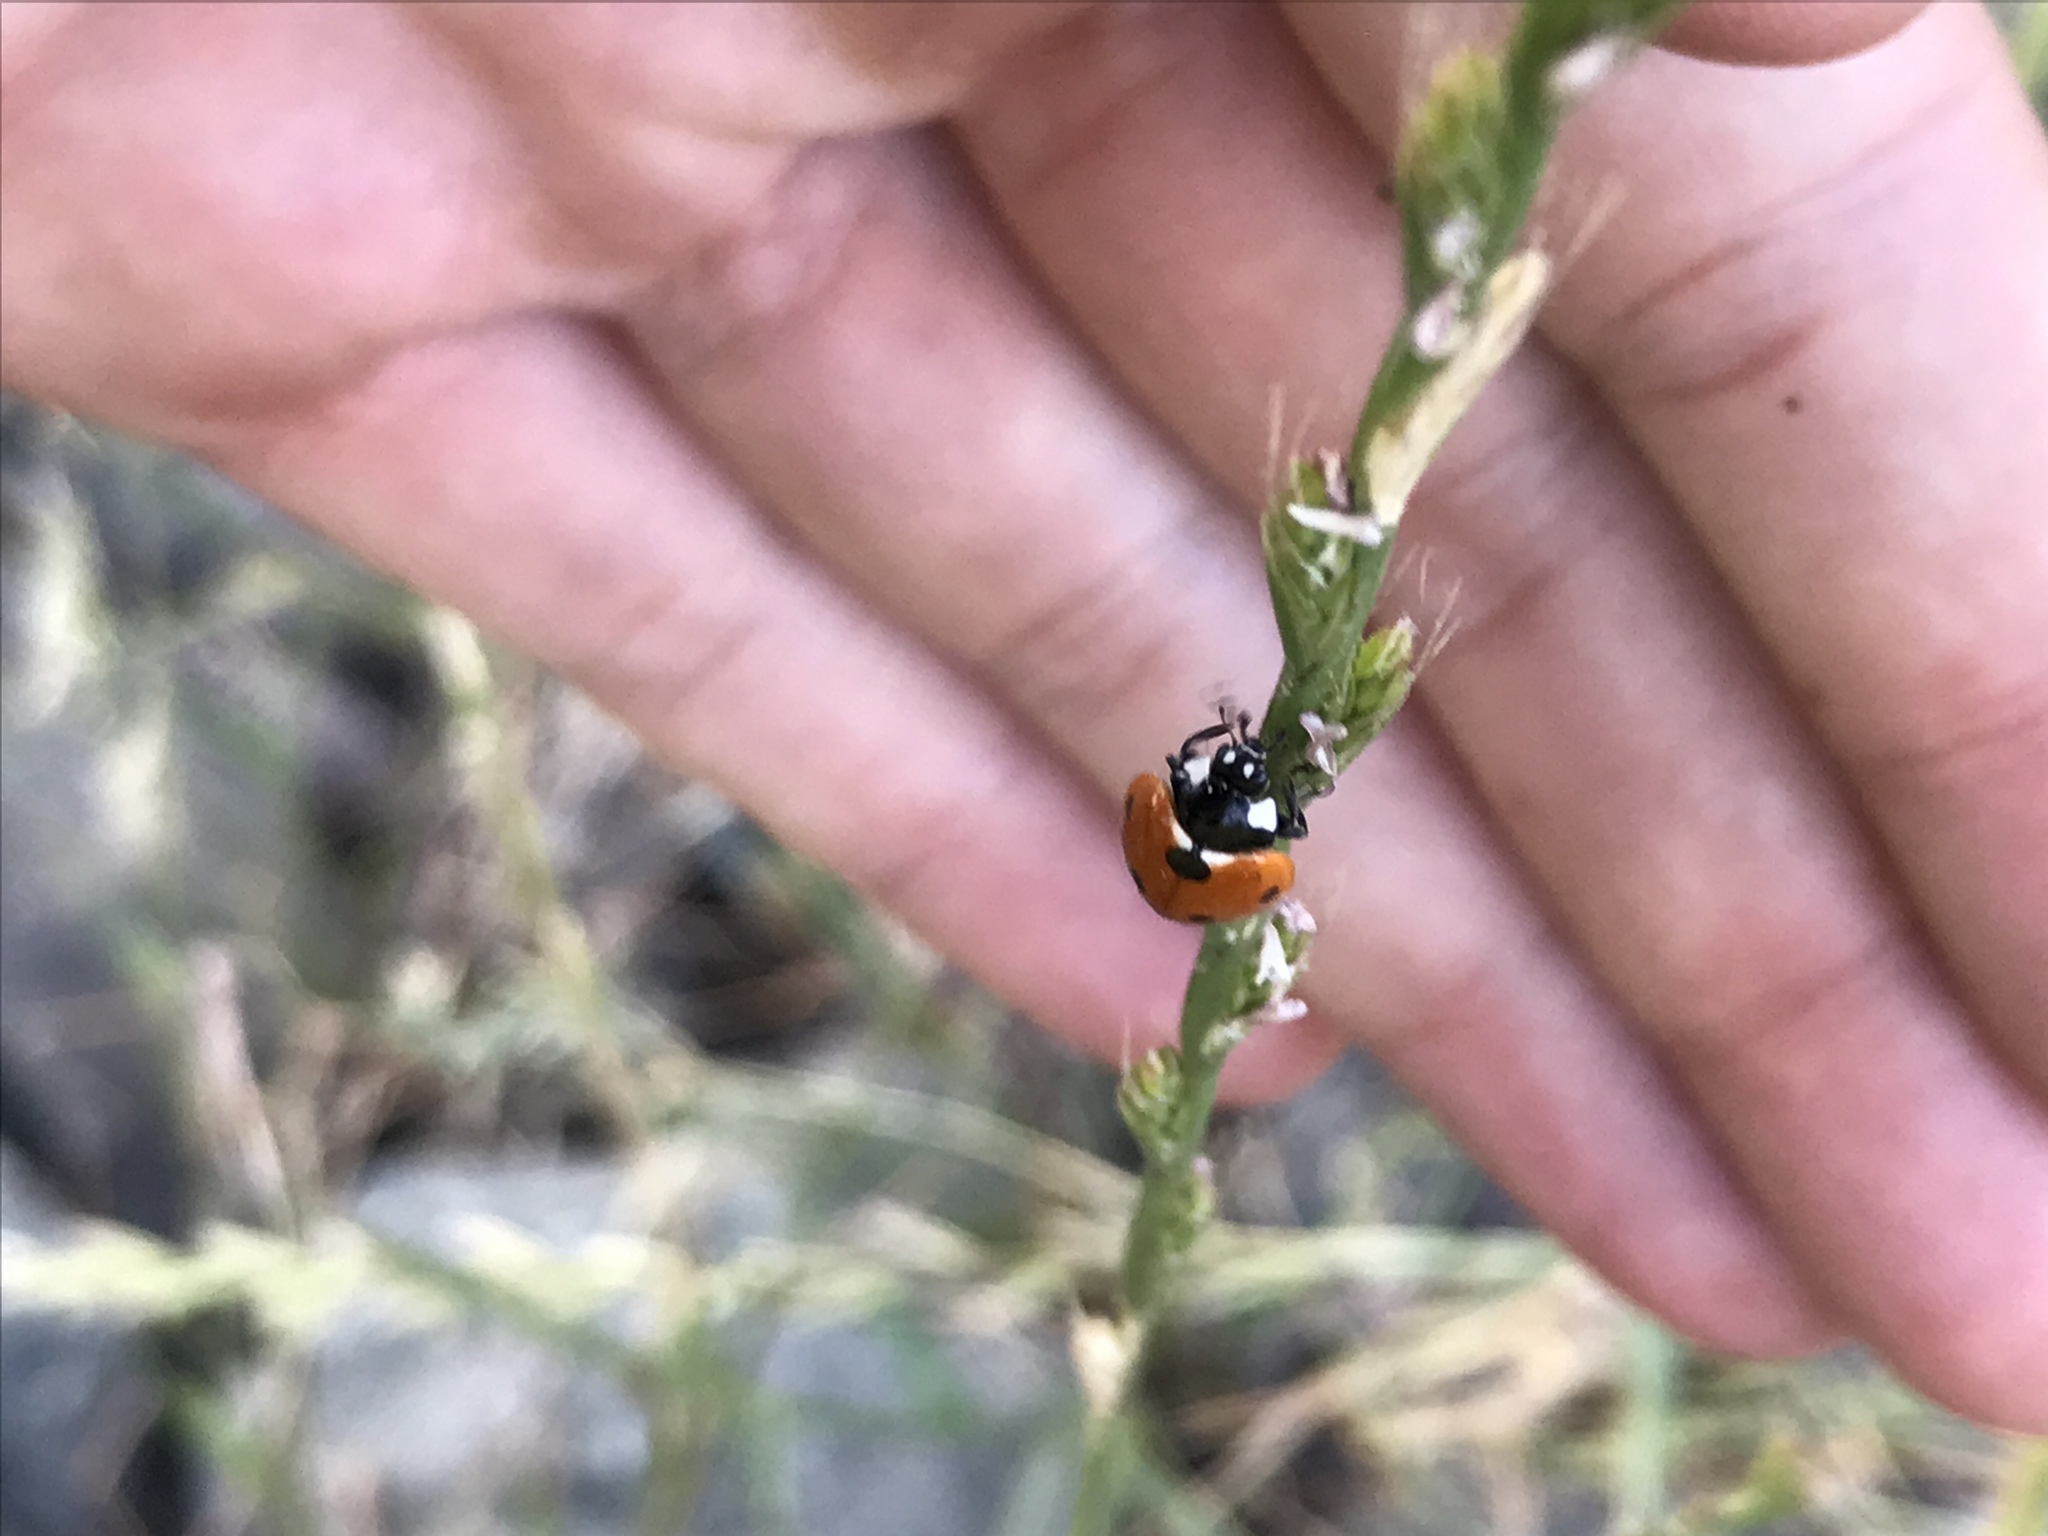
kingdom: Animalia
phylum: Arthropoda
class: Insecta
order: Coleoptera
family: Coccinellidae
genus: Coccinella
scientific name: Coccinella septempunctata
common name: Sevenspotted lady beetle
